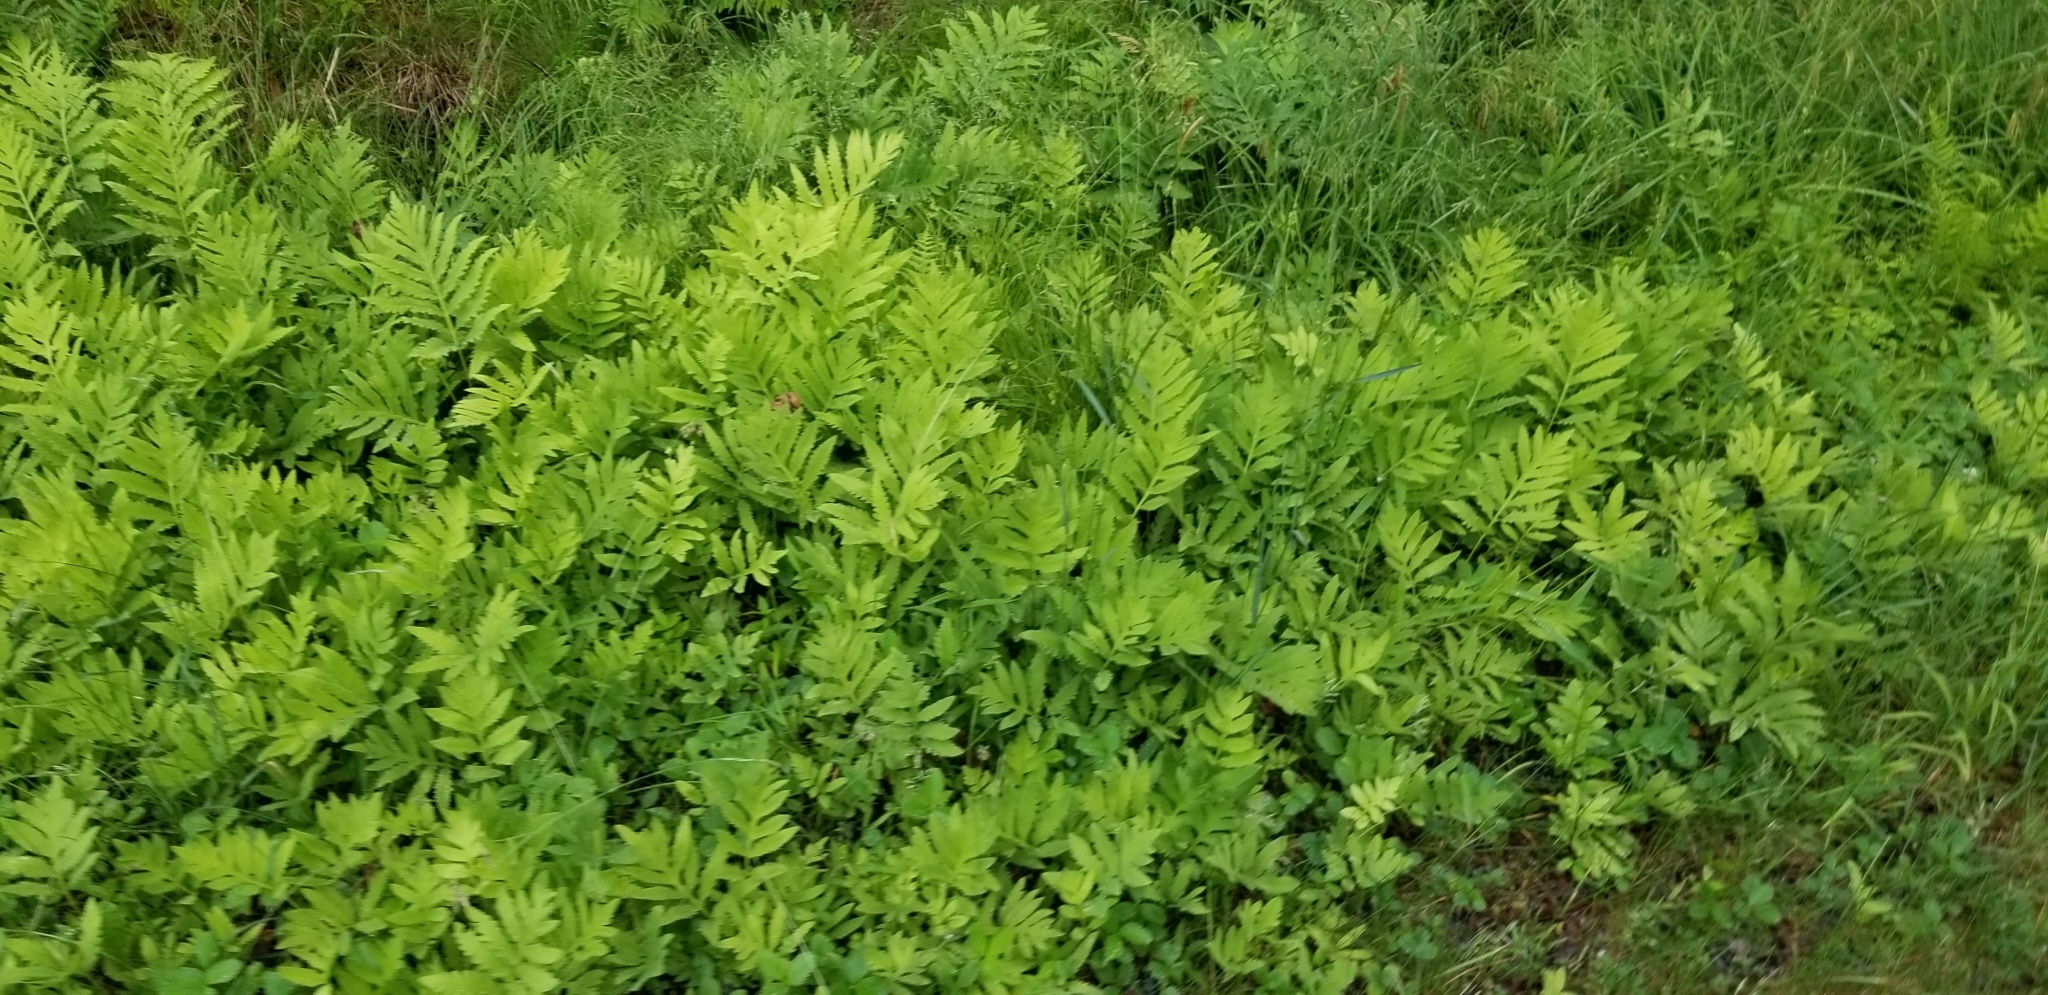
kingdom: Plantae
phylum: Tracheophyta
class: Polypodiopsida
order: Polypodiales
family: Onocleaceae
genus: Onoclea
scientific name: Onoclea sensibilis
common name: Sensitive fern
